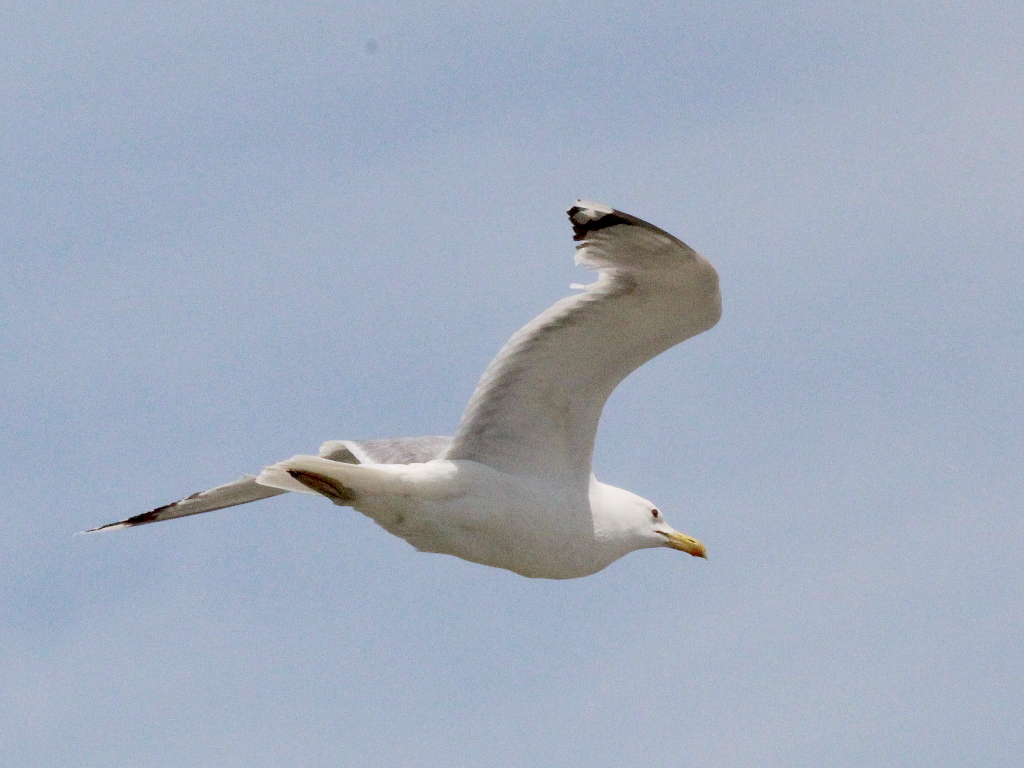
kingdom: Animalia
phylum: Chordata
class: Aves
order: Charadriiformes
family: Laridae
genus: Larus
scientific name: Larus cachinnans
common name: Caspian gull
